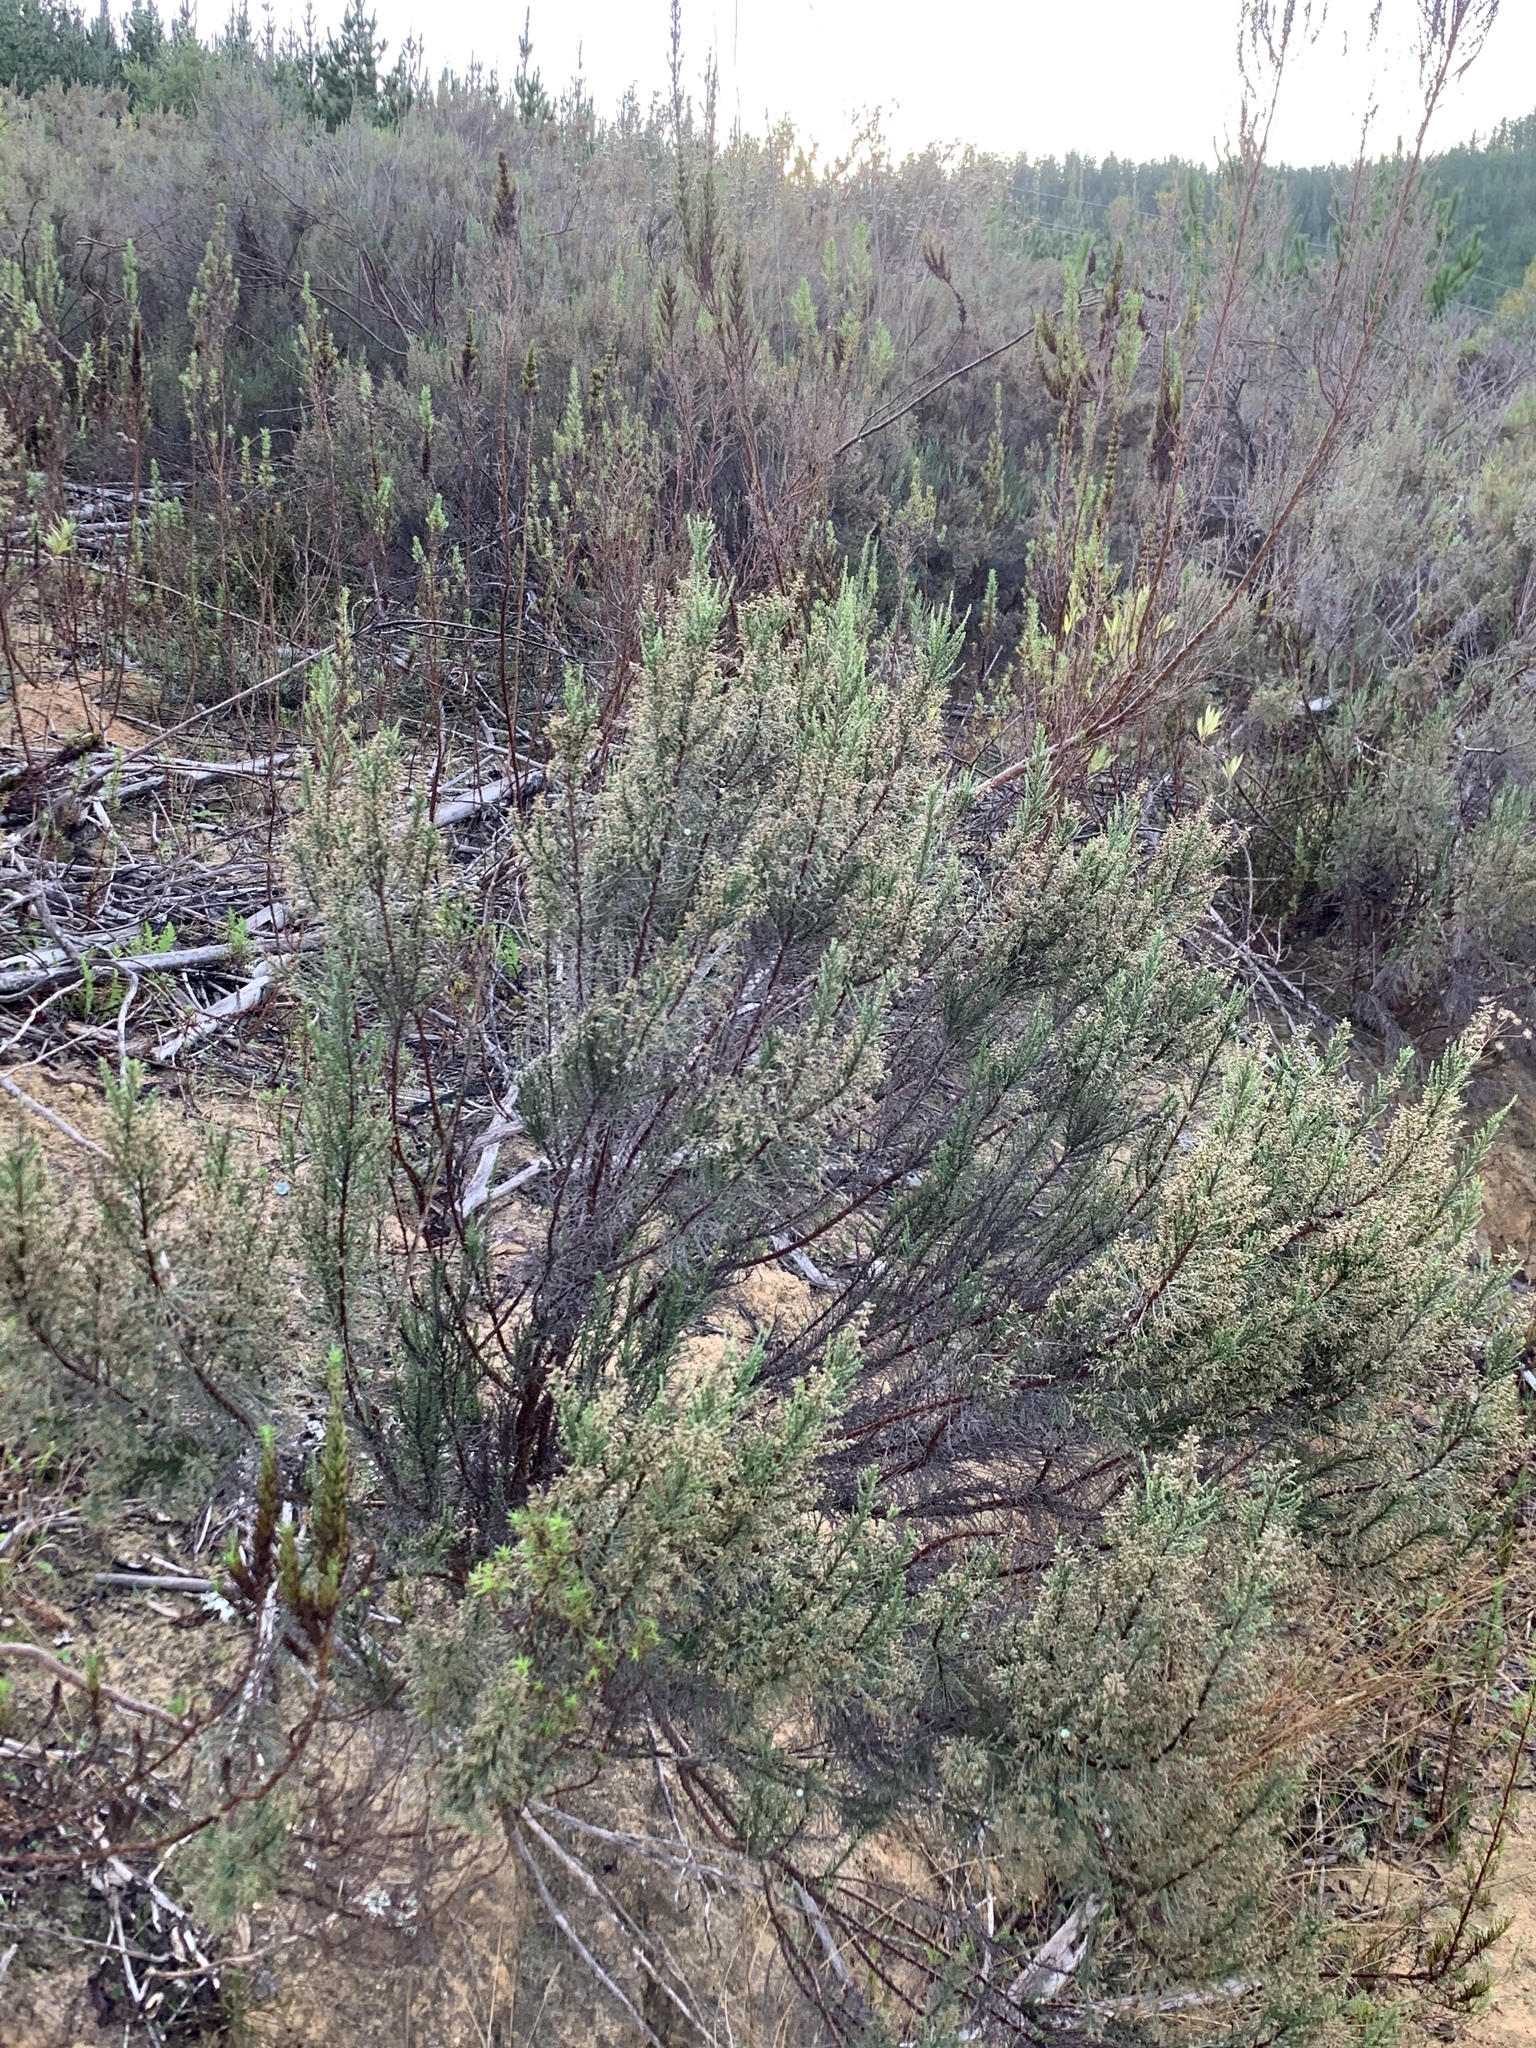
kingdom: Plantae
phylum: Tracheophyta
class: Magnoliopsida
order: Asterales
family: Asteraceae
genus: Dicerothamnus
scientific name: Dicerothamnus rhinocerotis
